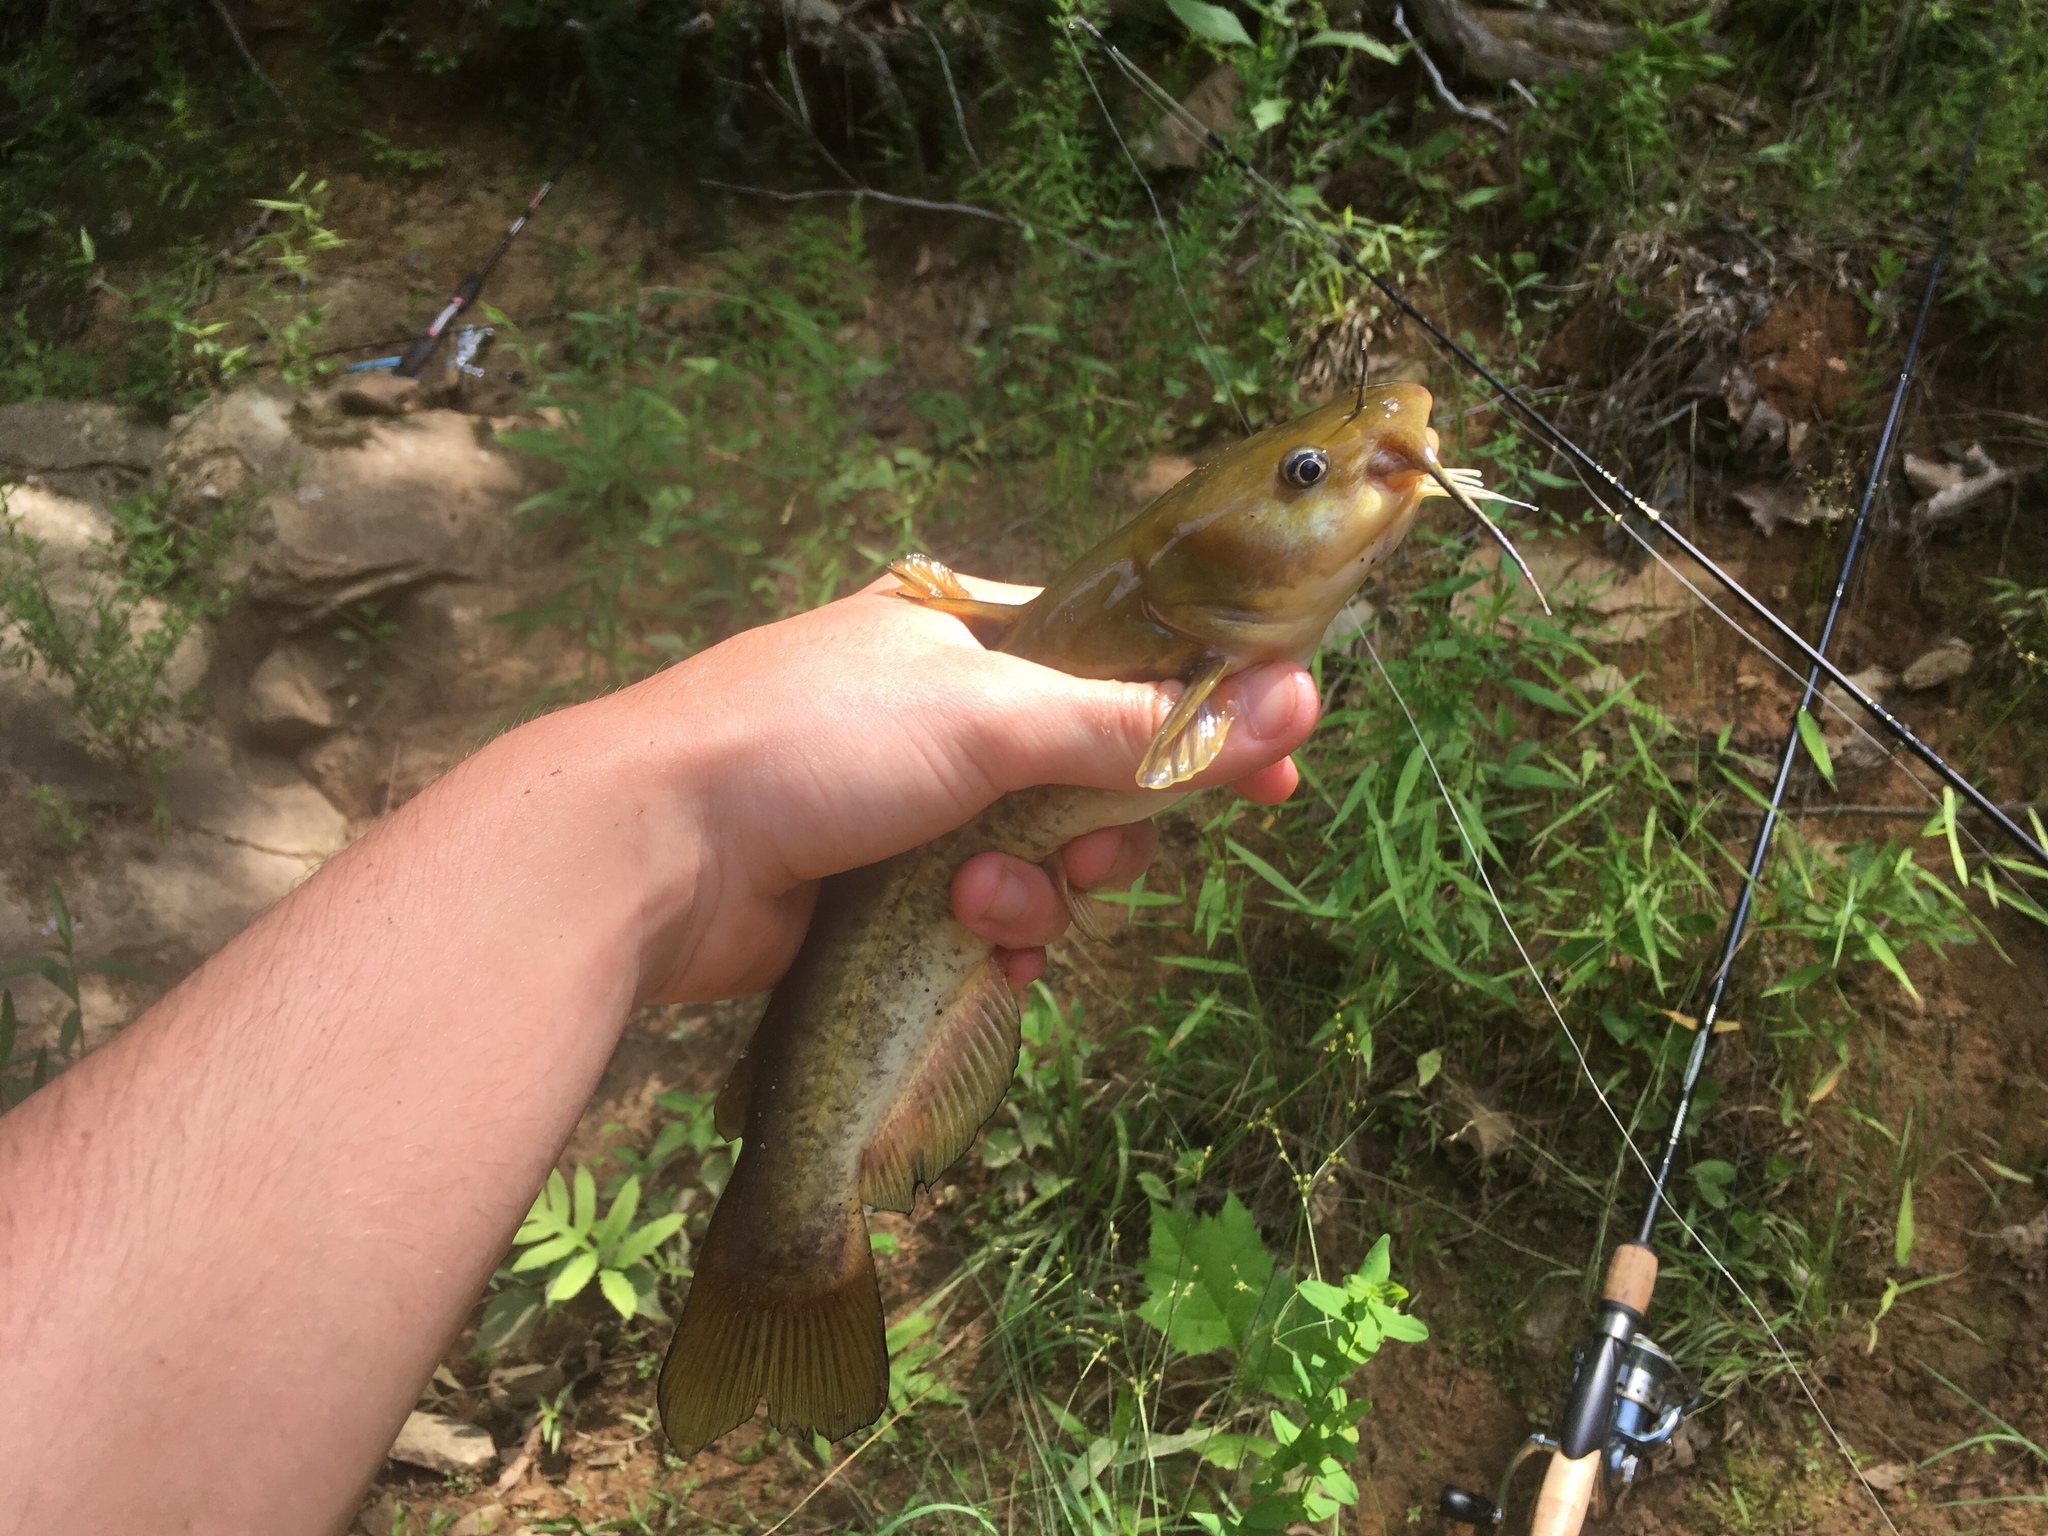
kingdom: Animalia
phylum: Chordata
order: Siluriformes
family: Ictaluridae
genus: Ameiurus
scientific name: Ameiurus brunneus
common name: Snail bullhead
